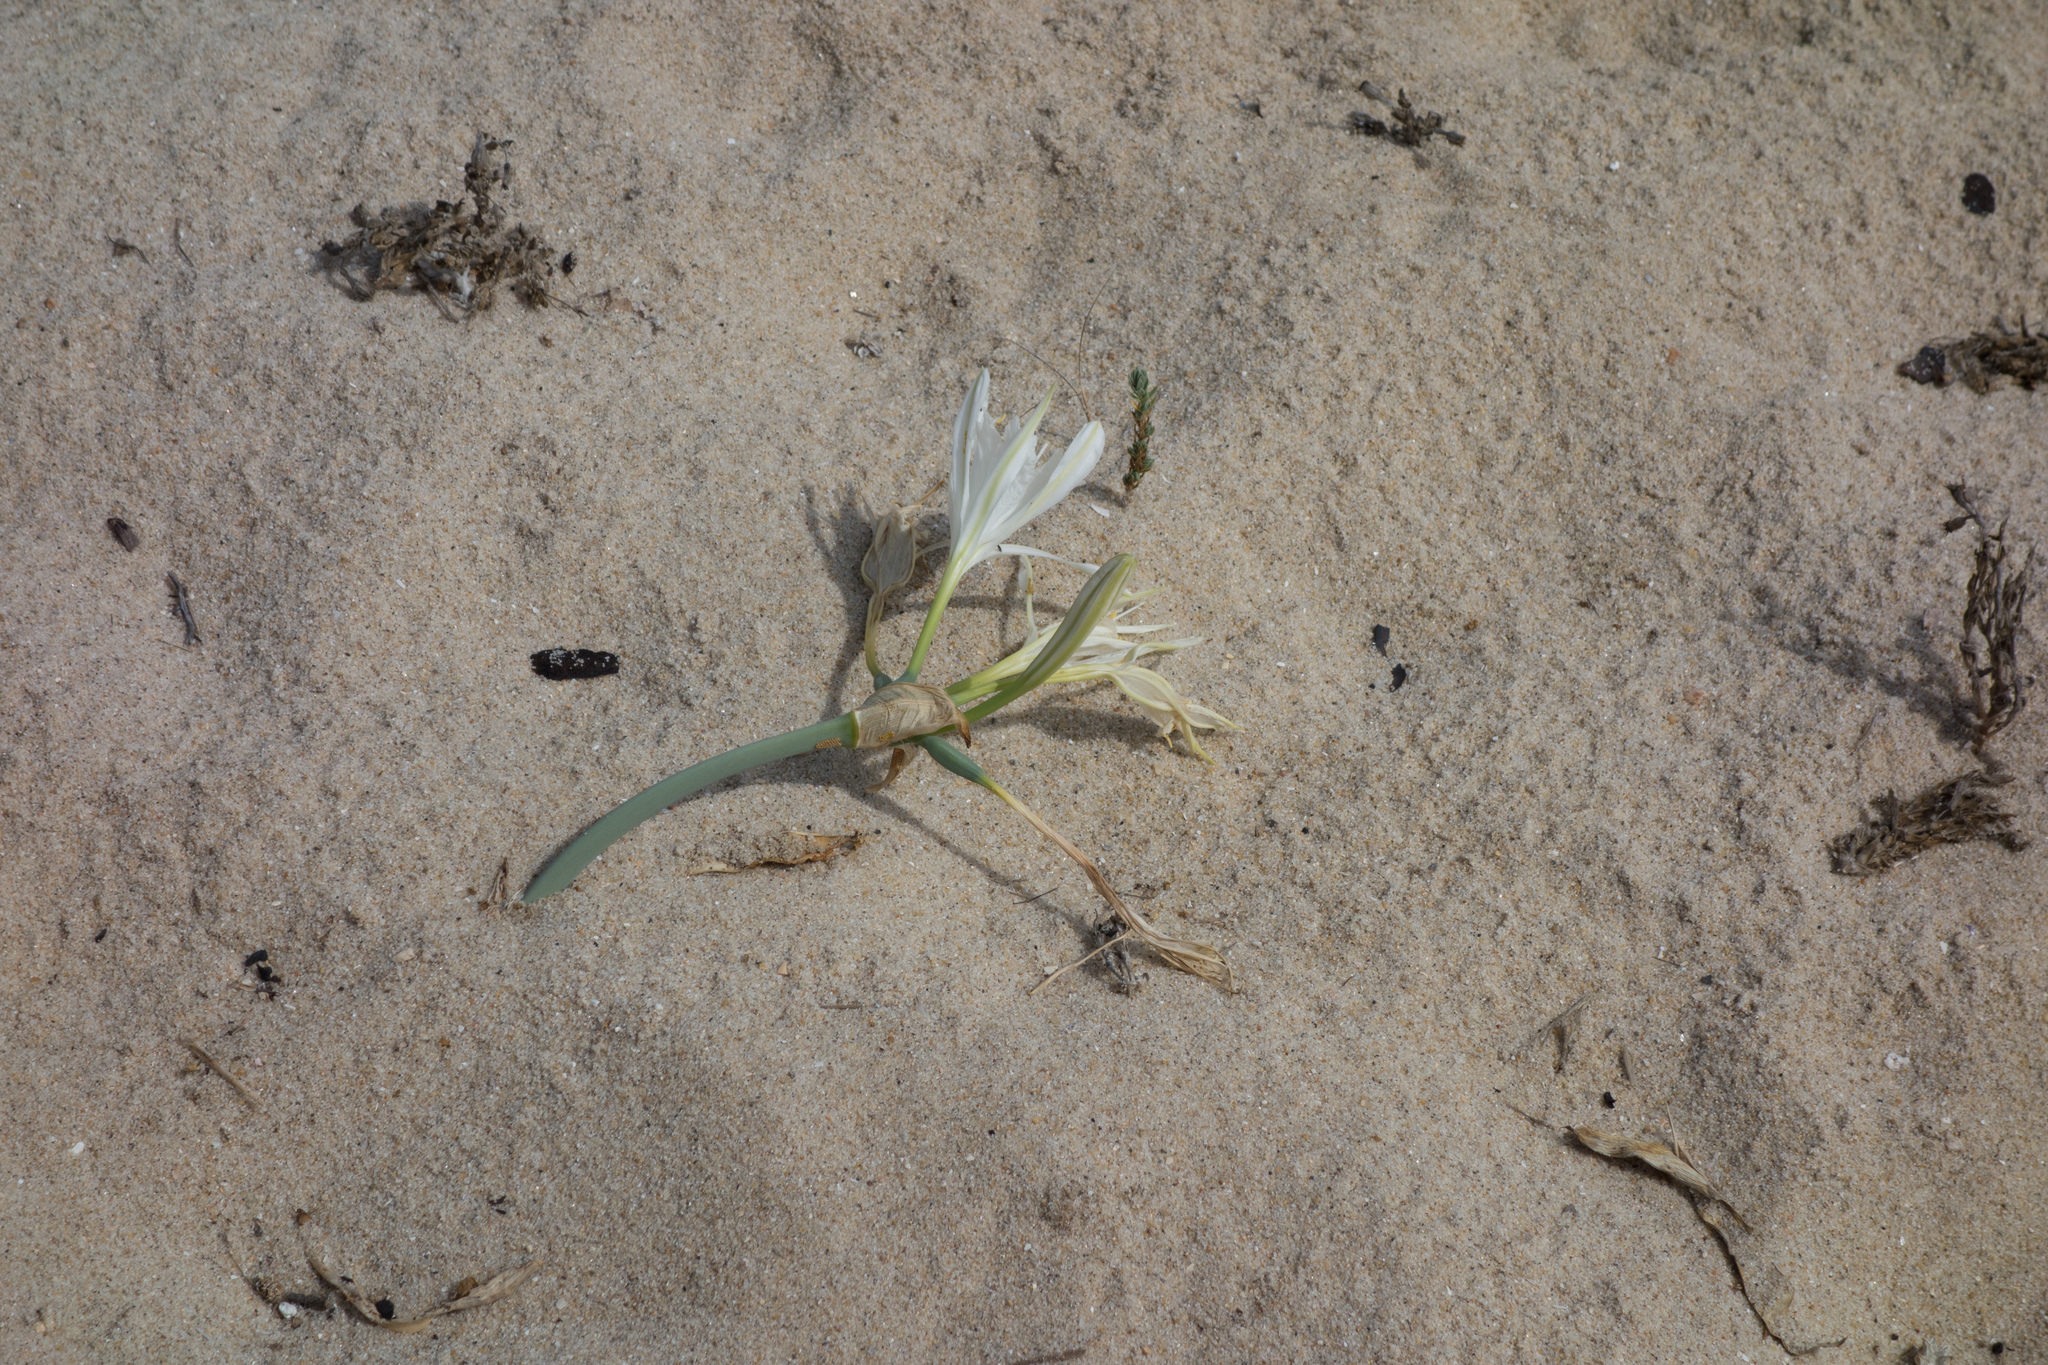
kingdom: Plantae
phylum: Tracheophyta
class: Liliopsida
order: Asparagales
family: Amaryllidaceae
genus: Pancratium
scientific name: Pancratium maritimum
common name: Sea-daffodil
